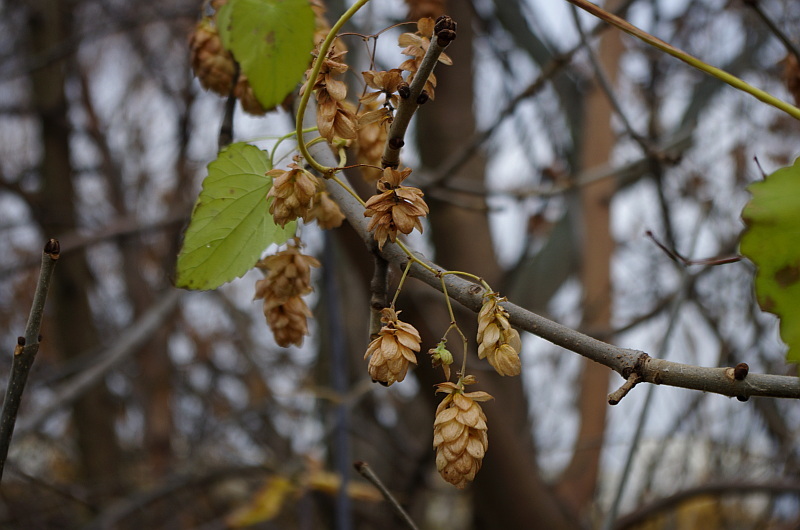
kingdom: Plantae
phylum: Tracheophyta
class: Magnoliopsida
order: Rosales
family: Cannabaceae
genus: Humulus
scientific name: Humulus lupulus
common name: Hop
